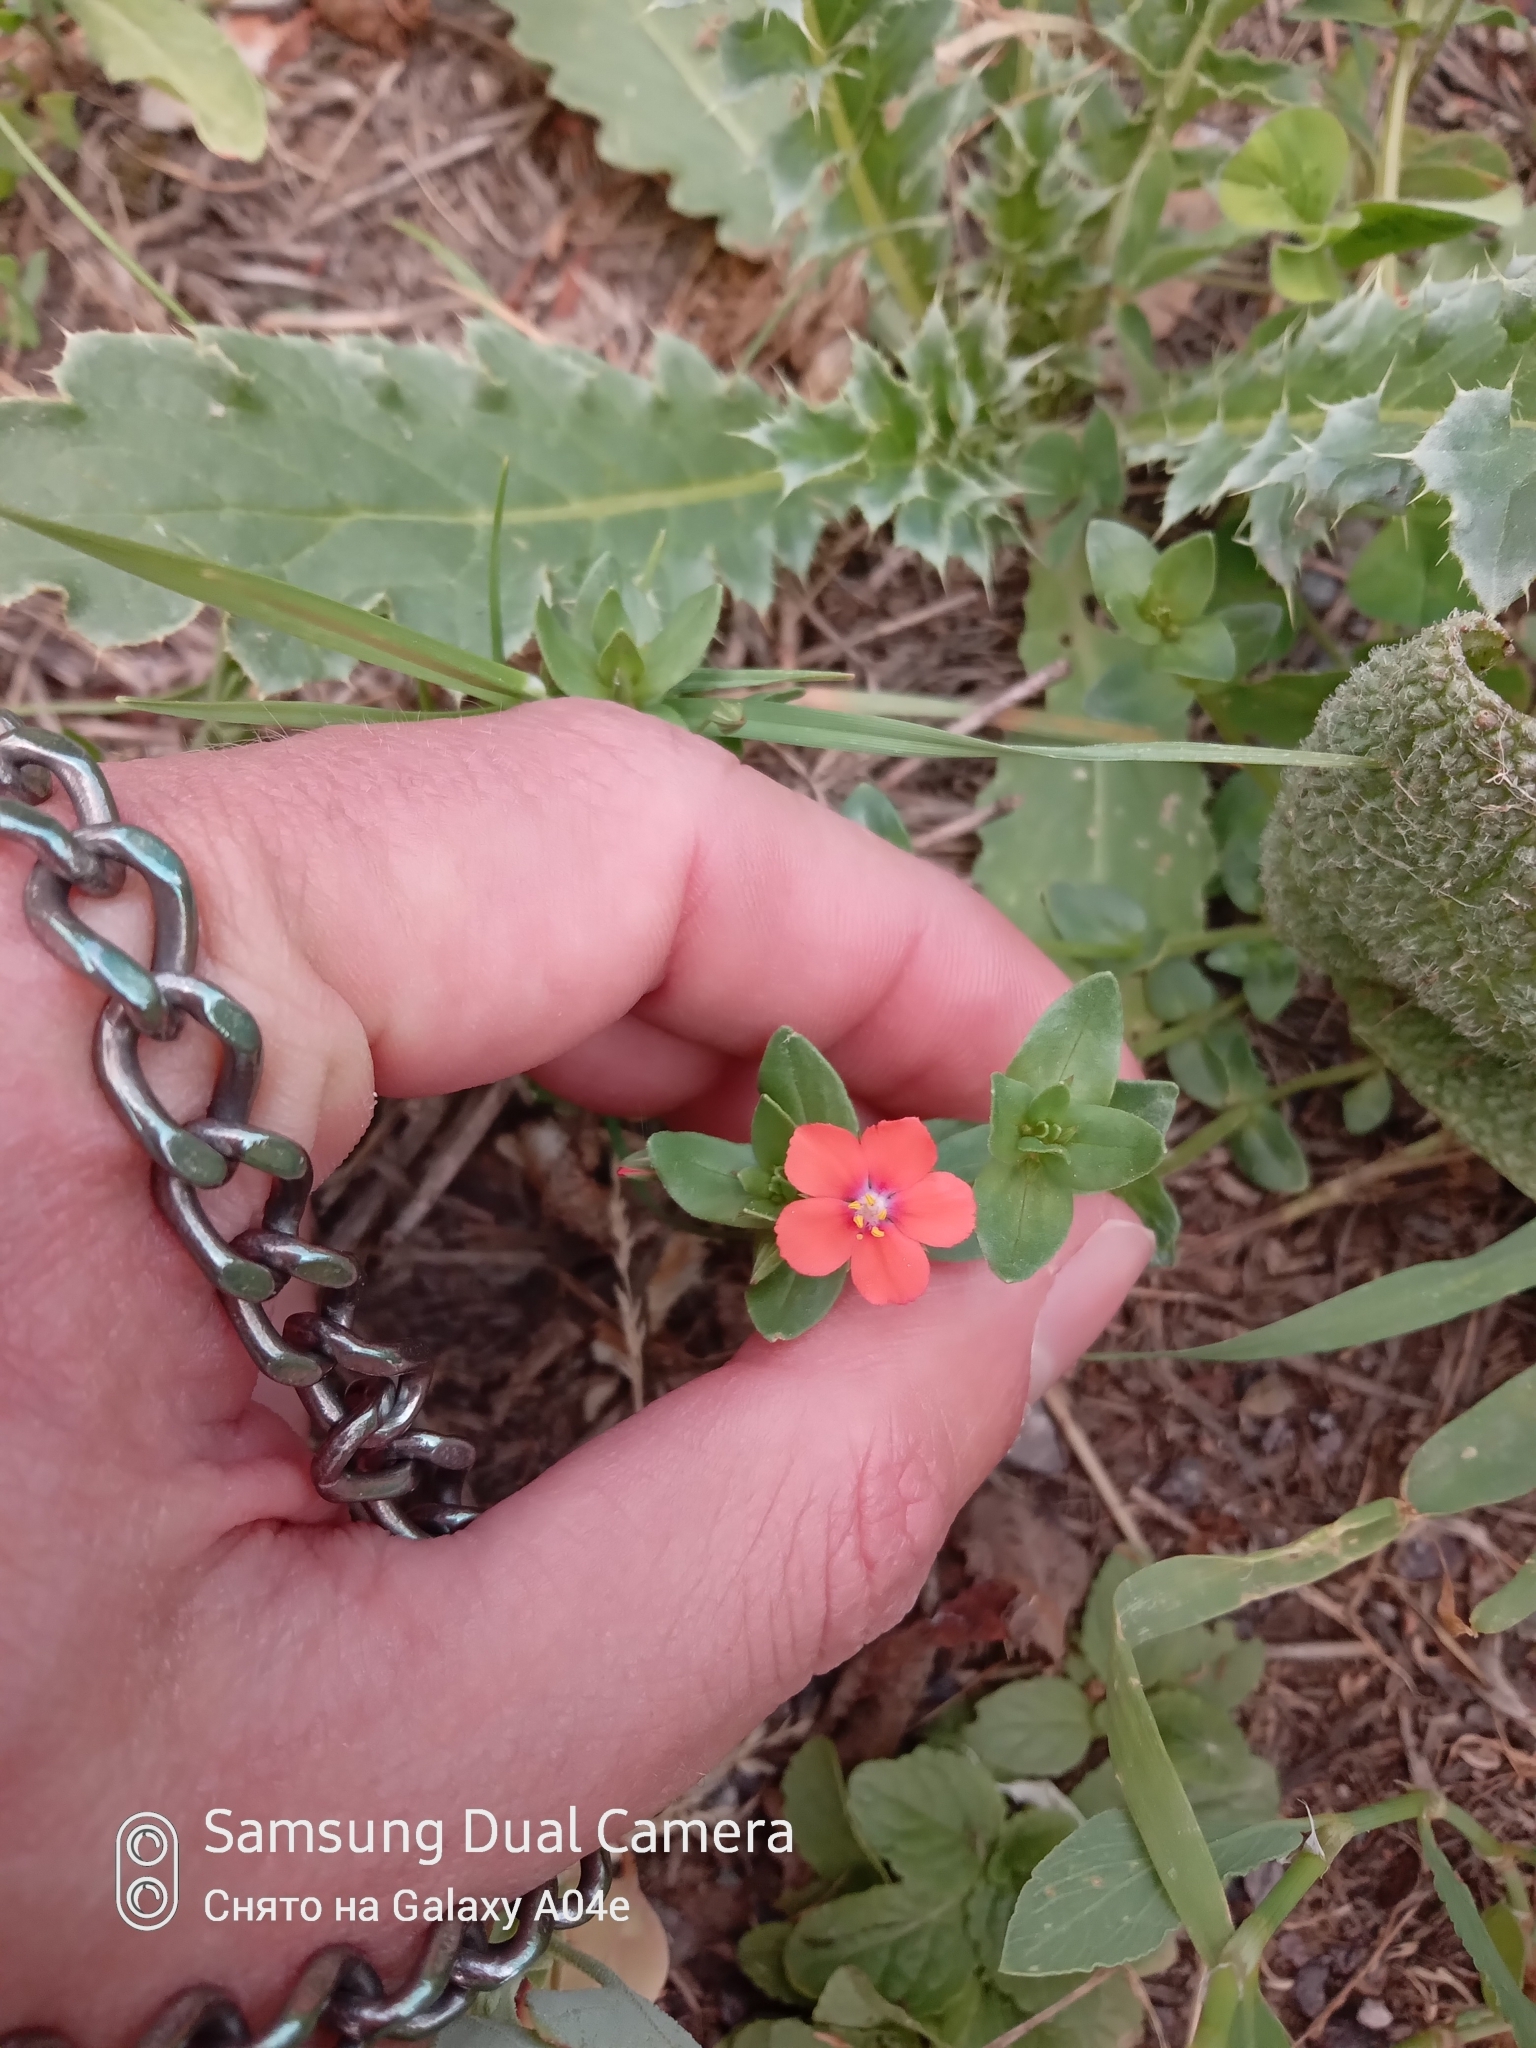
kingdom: Plantae
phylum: Tracheophyta
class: Magnoliopsida
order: Ericales
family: Primulaceae
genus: Lysimachia
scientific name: Lysimachia arvensis
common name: Scarlet pimpernel
